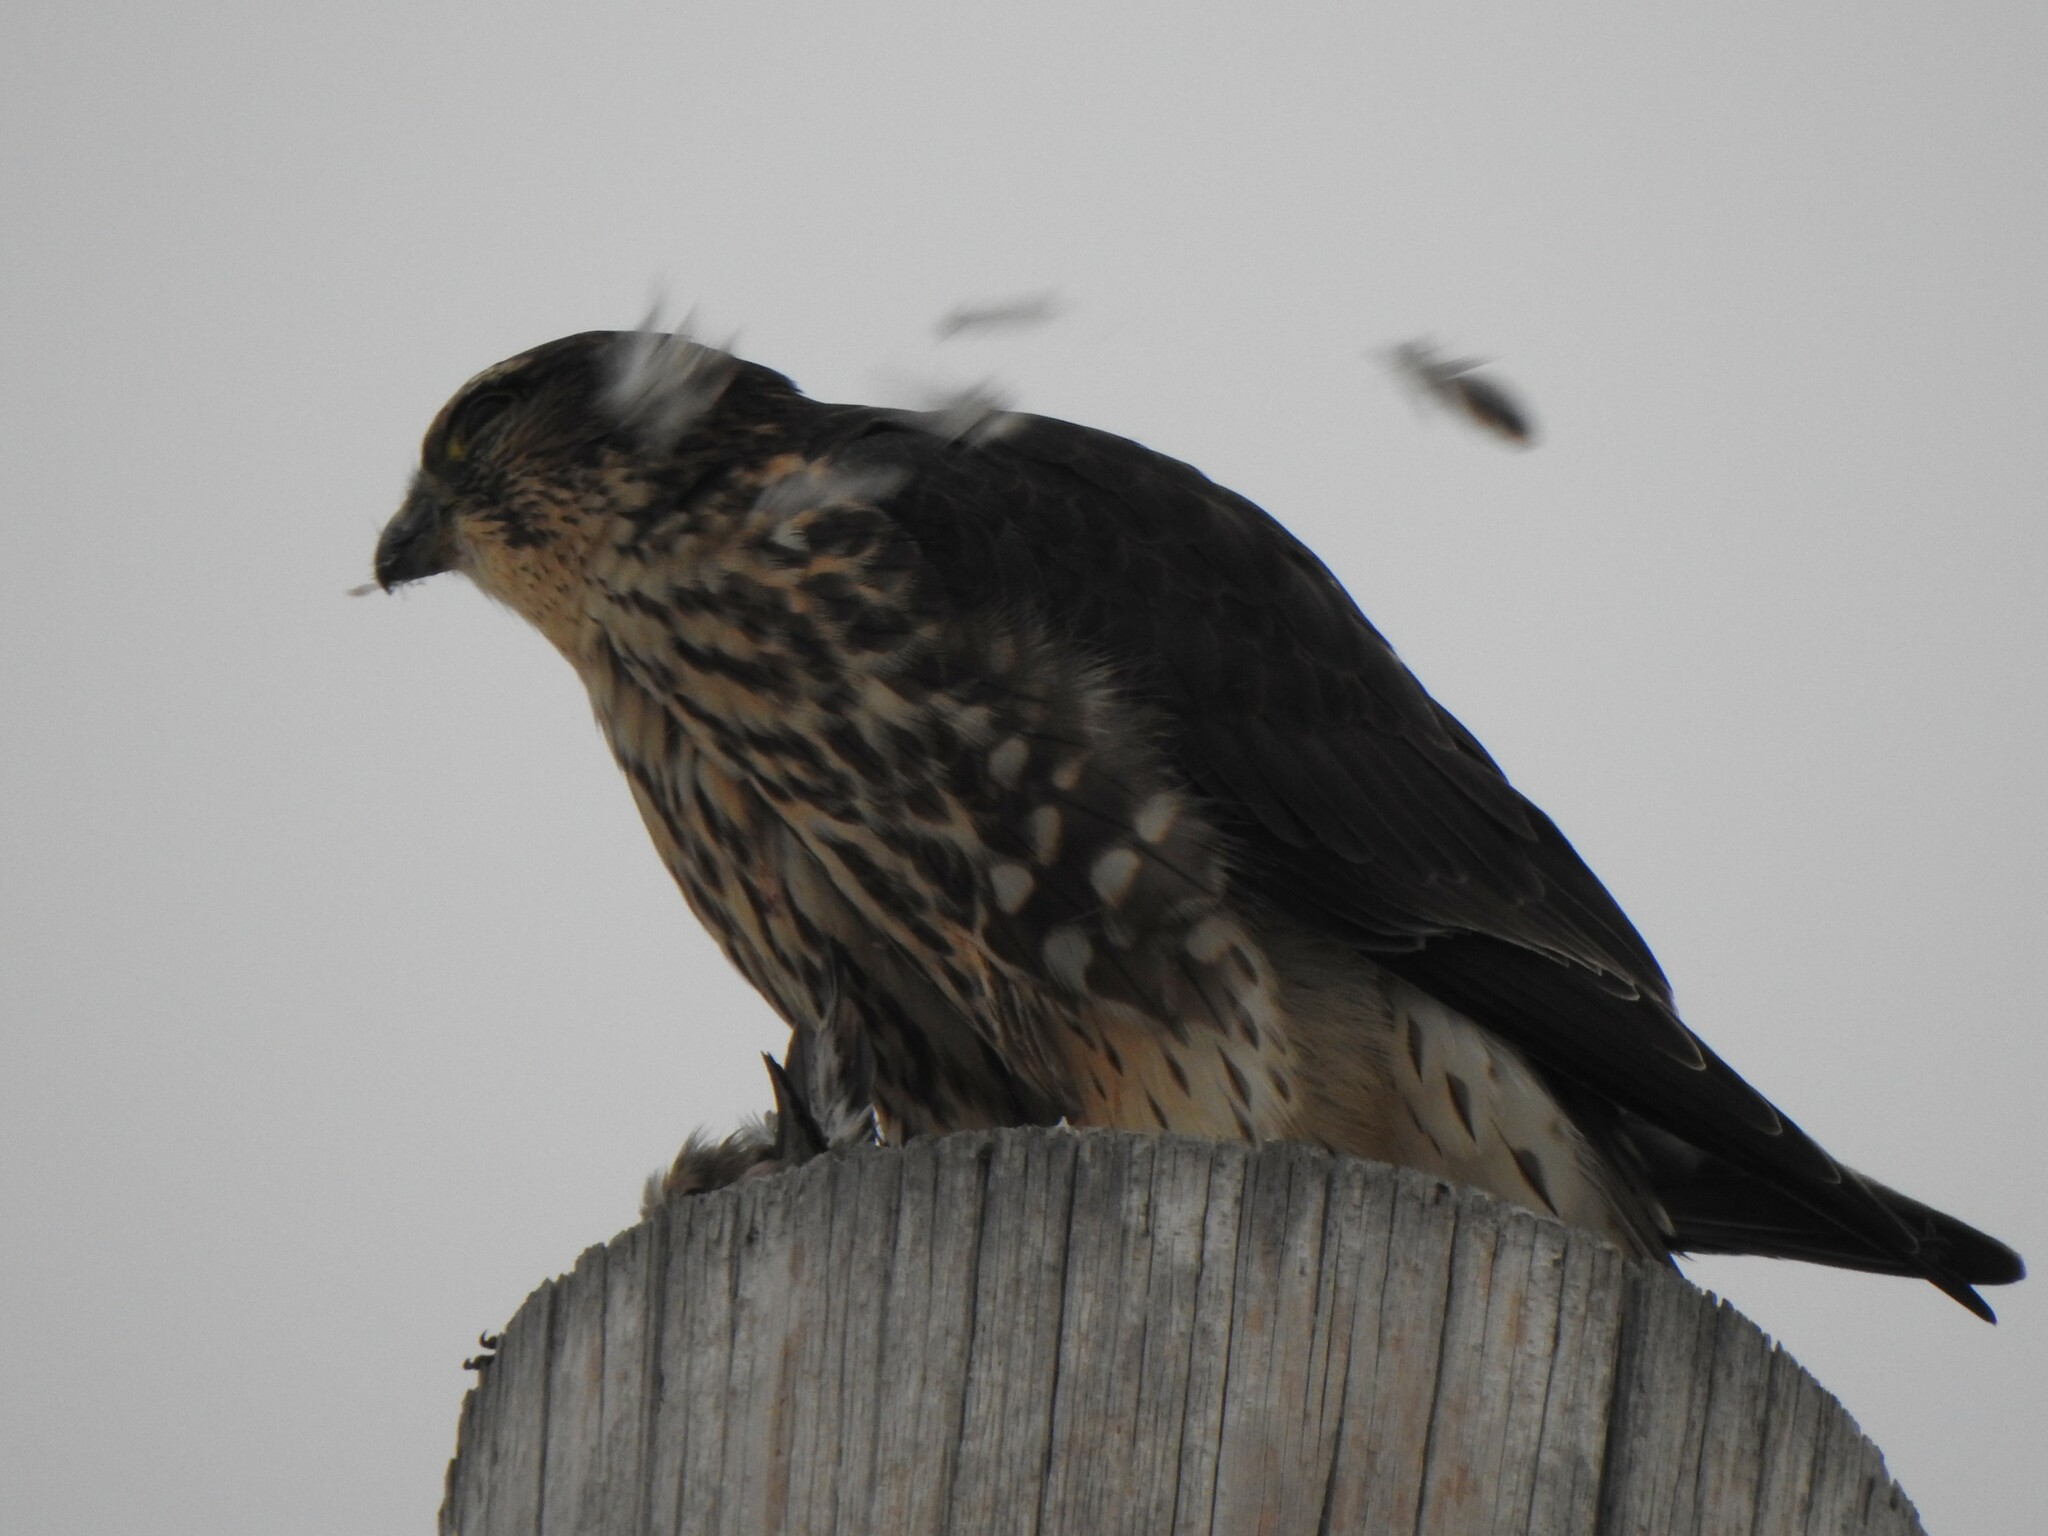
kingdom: Animalia
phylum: Chordata
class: Aves
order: Falconiformes
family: Falconidae
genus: Falco
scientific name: Falco columbarius
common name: Merlin
